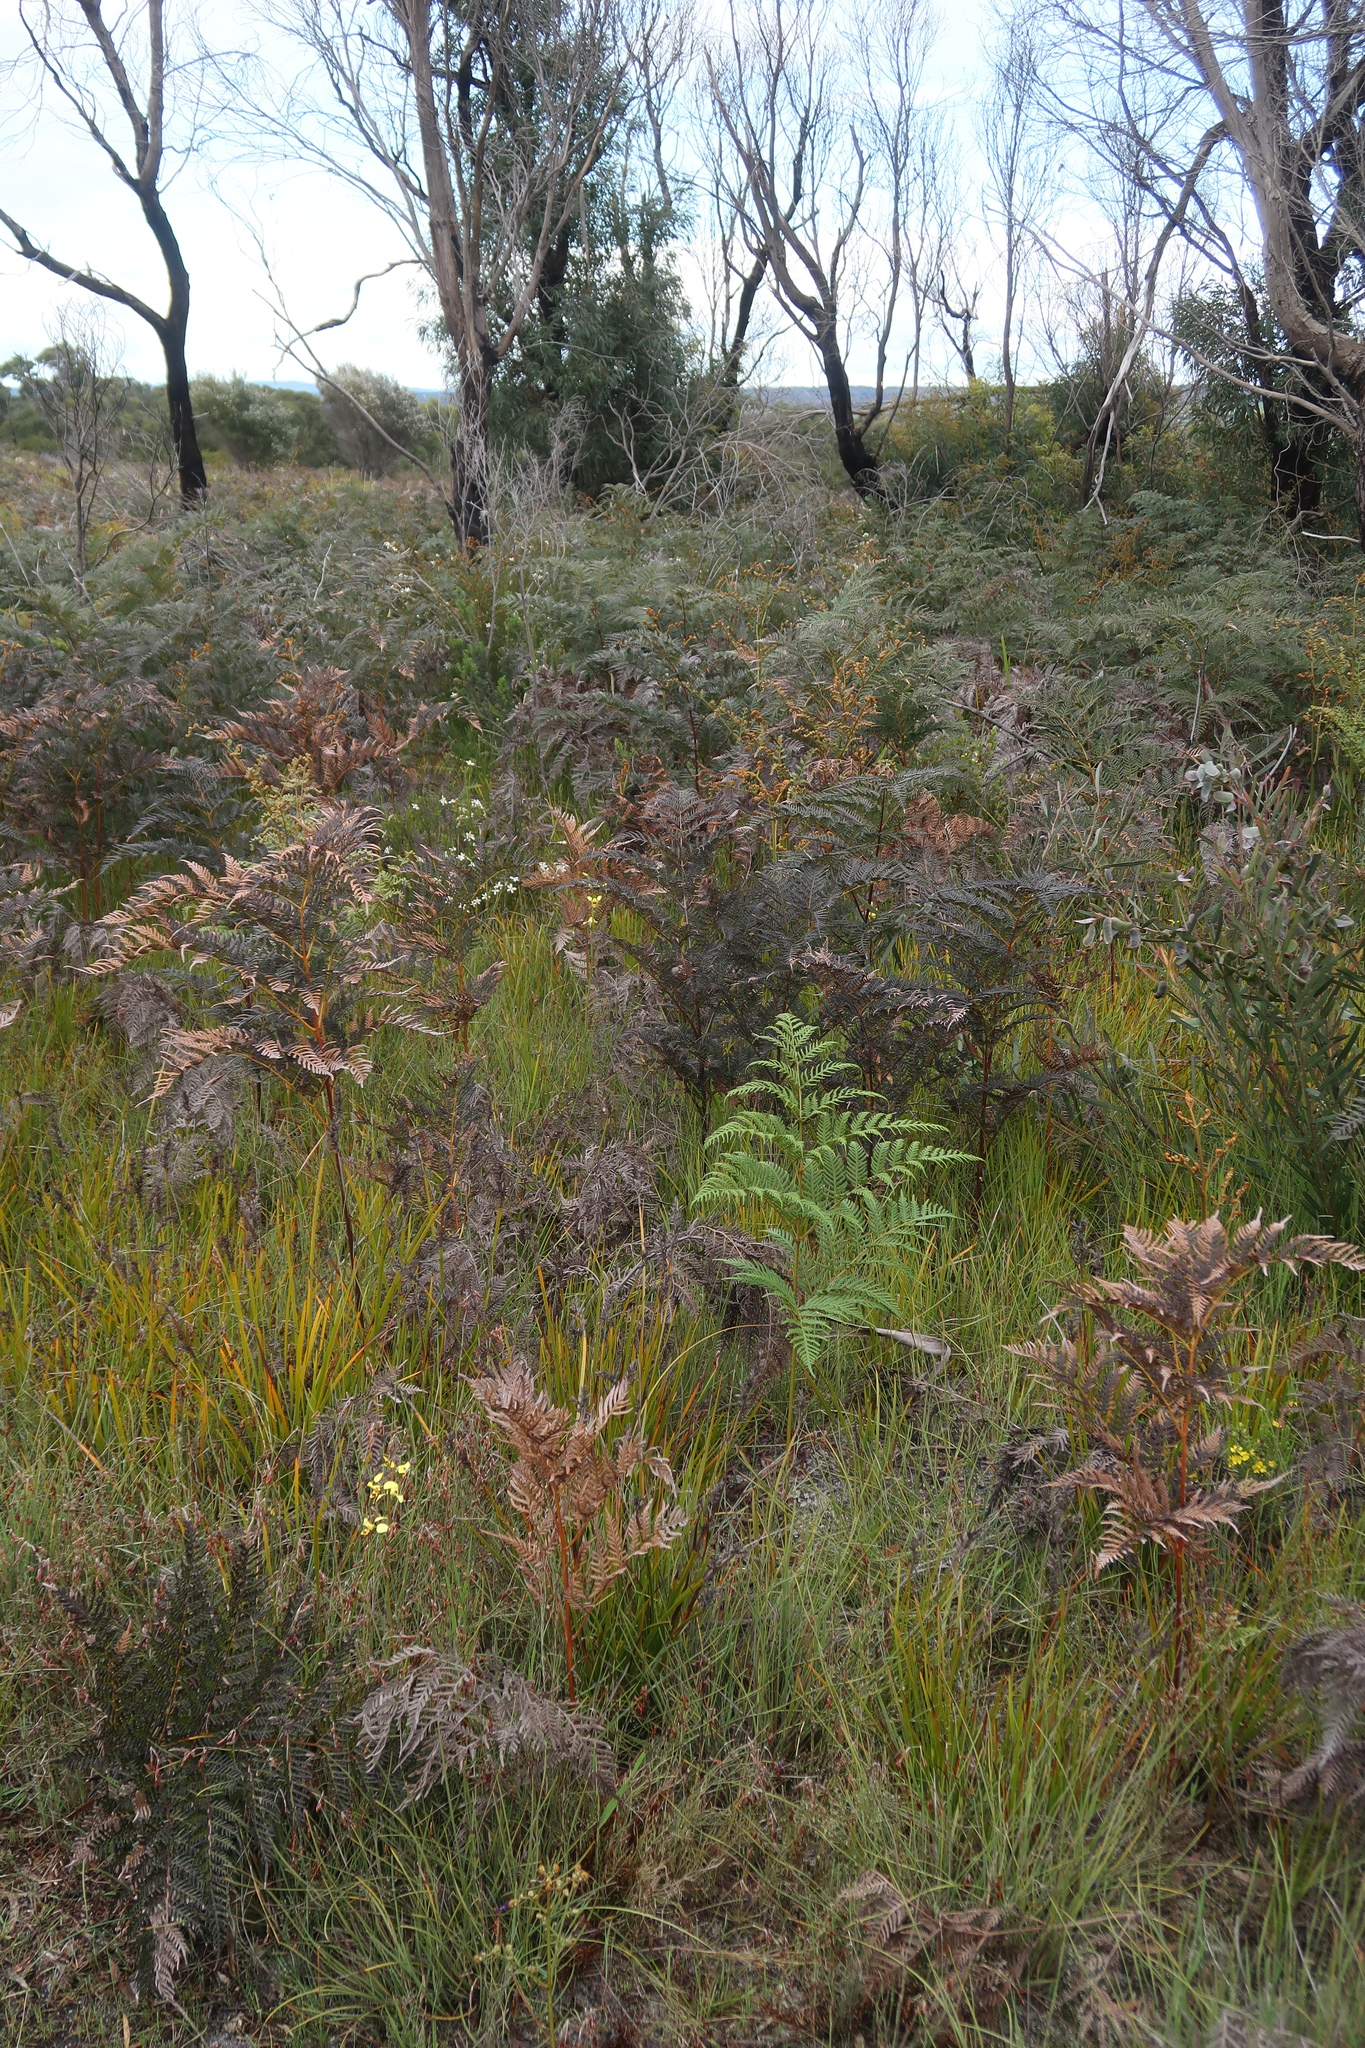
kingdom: Plantae
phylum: Tracheophyta
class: Liliopsida
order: Asparagales
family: Orchidaceae
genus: Diuris
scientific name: Diuris sulphurea
